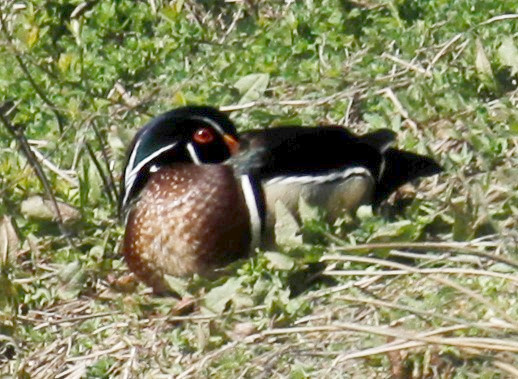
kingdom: Animalia
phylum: Chordata
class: Aves
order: Anseriformes
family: Anatidae
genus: Aix
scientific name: Aix sponsa
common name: Wood duck
